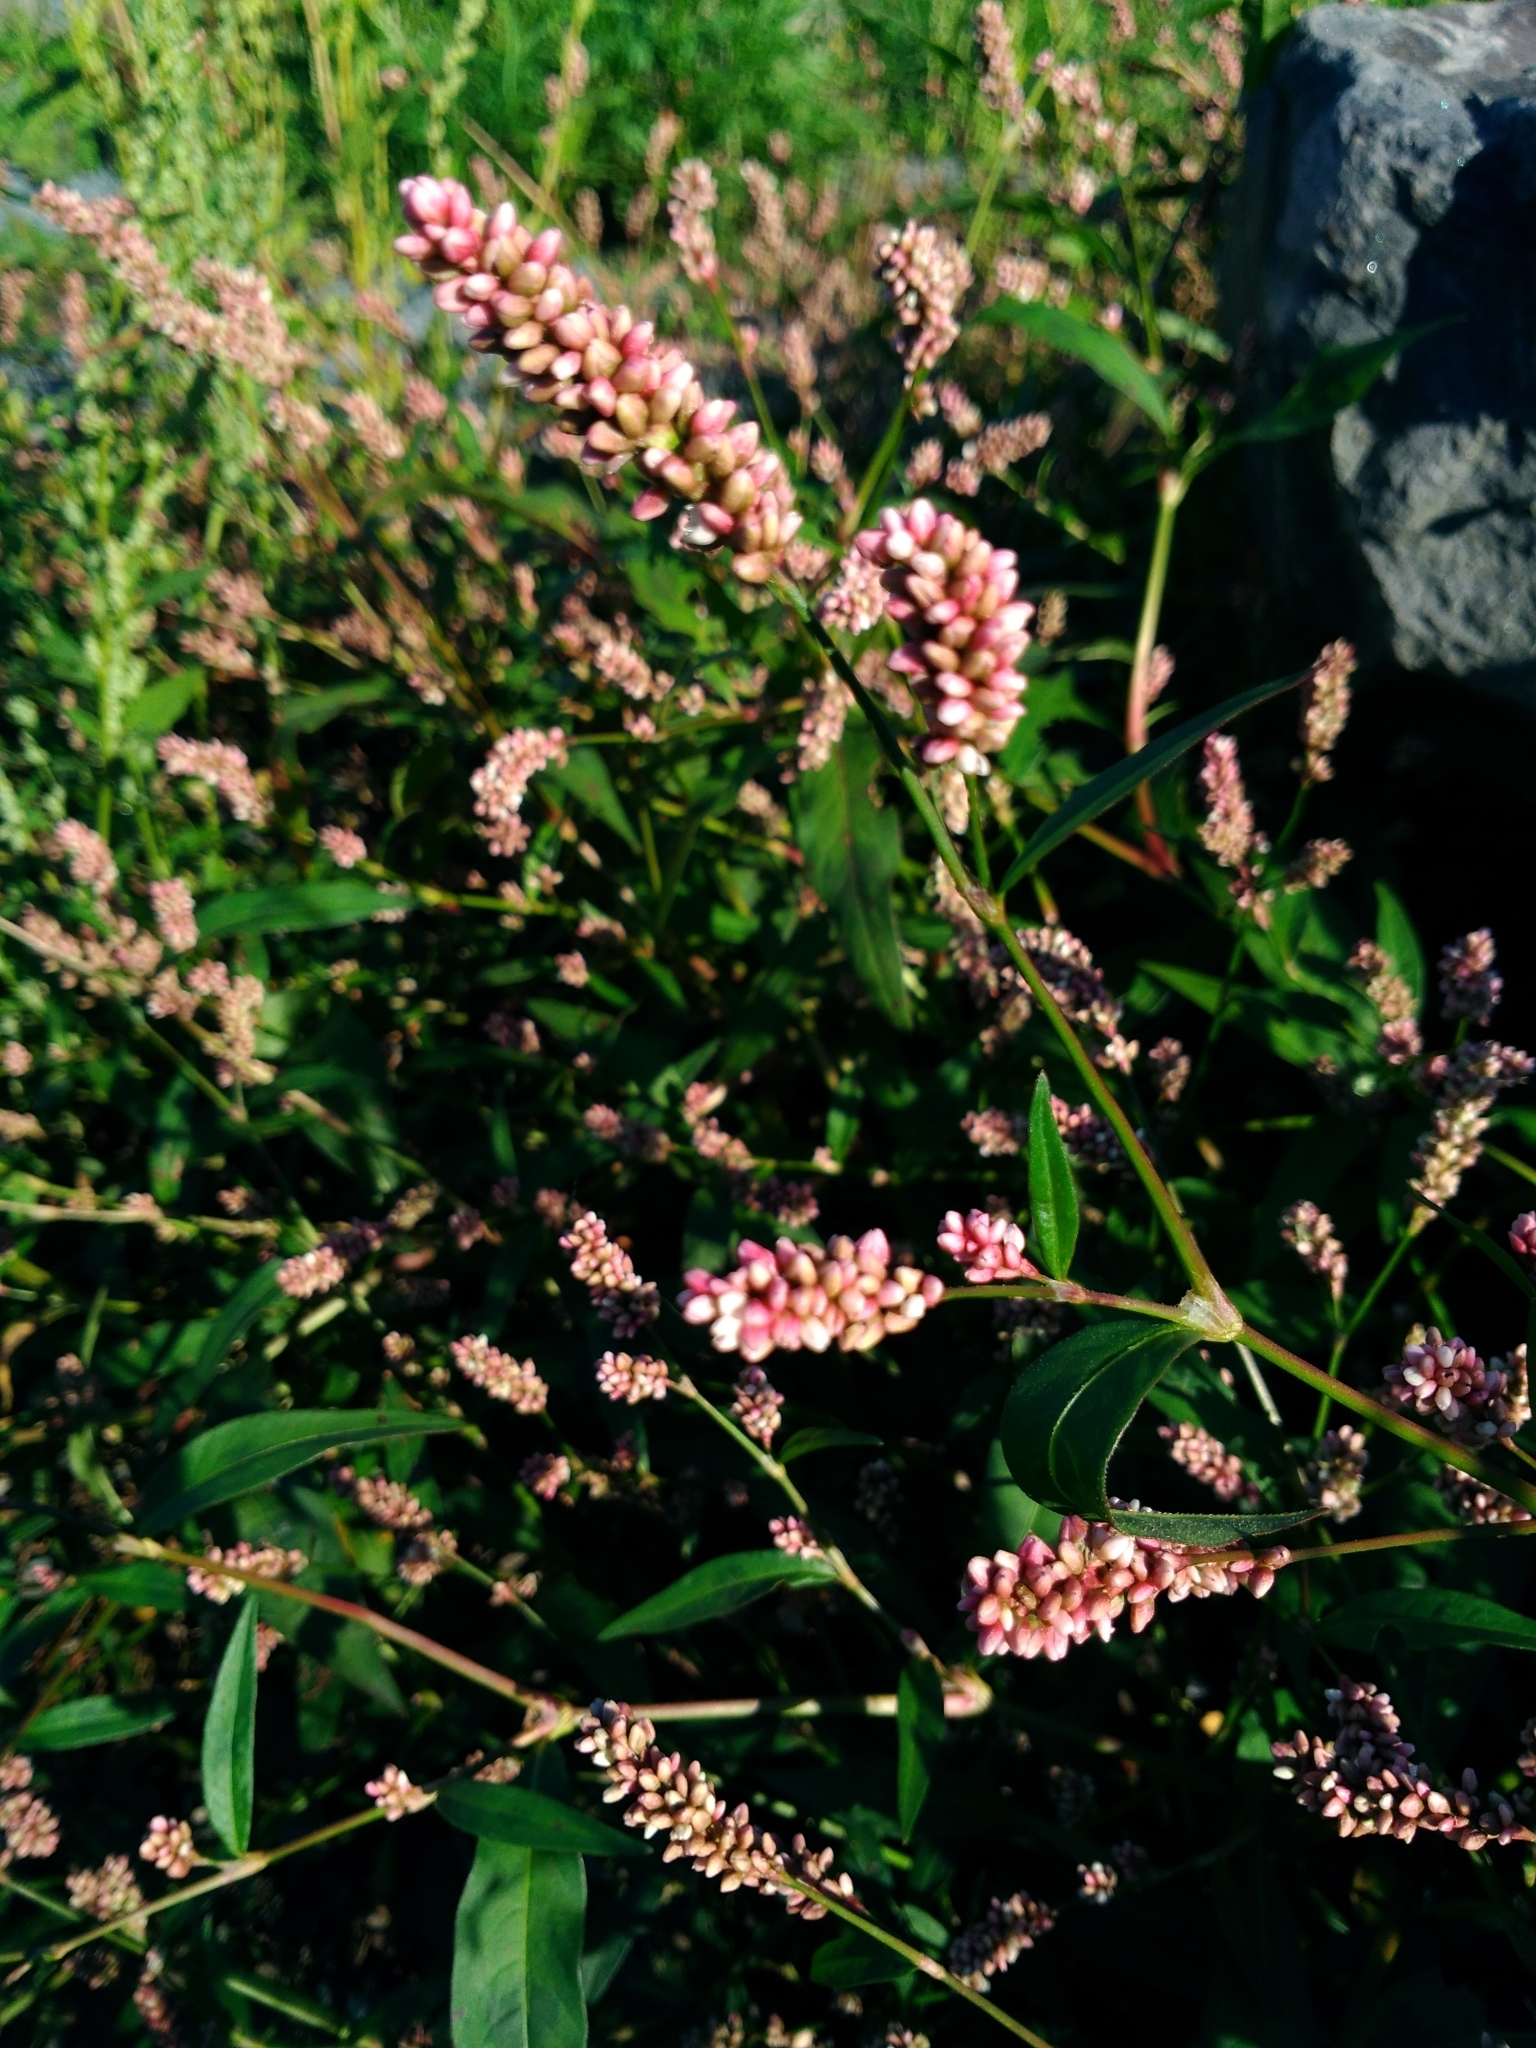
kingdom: Plantae
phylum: Tracheophyta
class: Magnoliopsida
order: Caryophyllales
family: Polygonaceae
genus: Persicaria
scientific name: Persicaria maculosa
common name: Redshank
